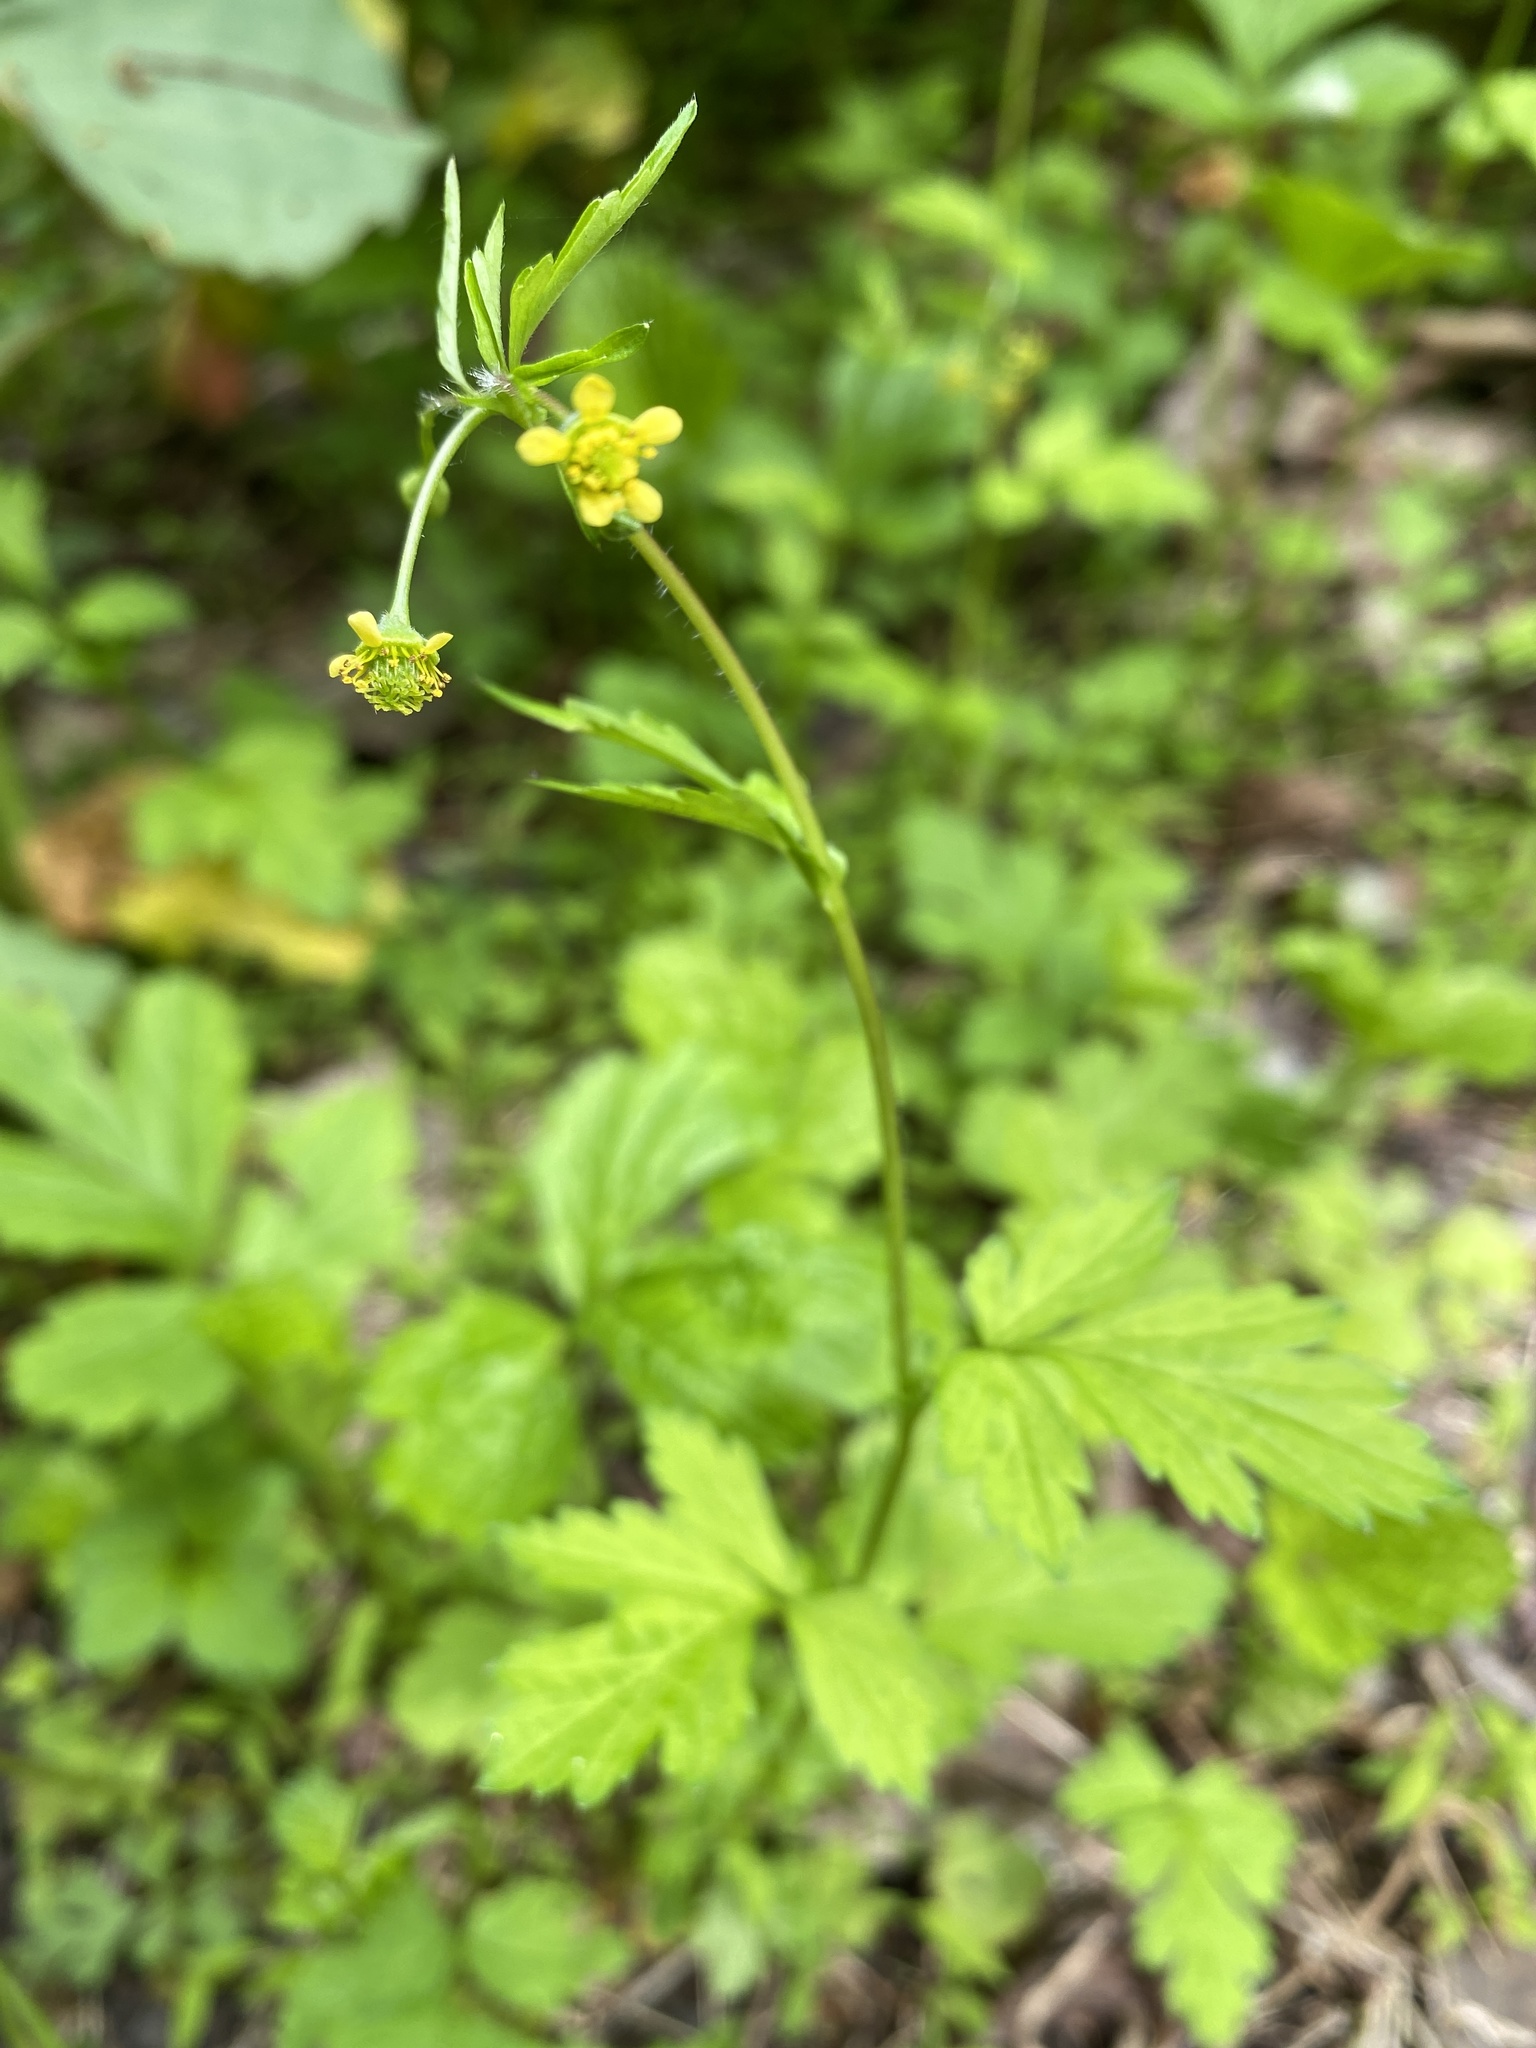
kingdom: Plantae
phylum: Tracheophyta
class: Magnoliopsida
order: Rosales
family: Rosaceae
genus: Geum
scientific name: Geum vernum
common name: Spring avens
